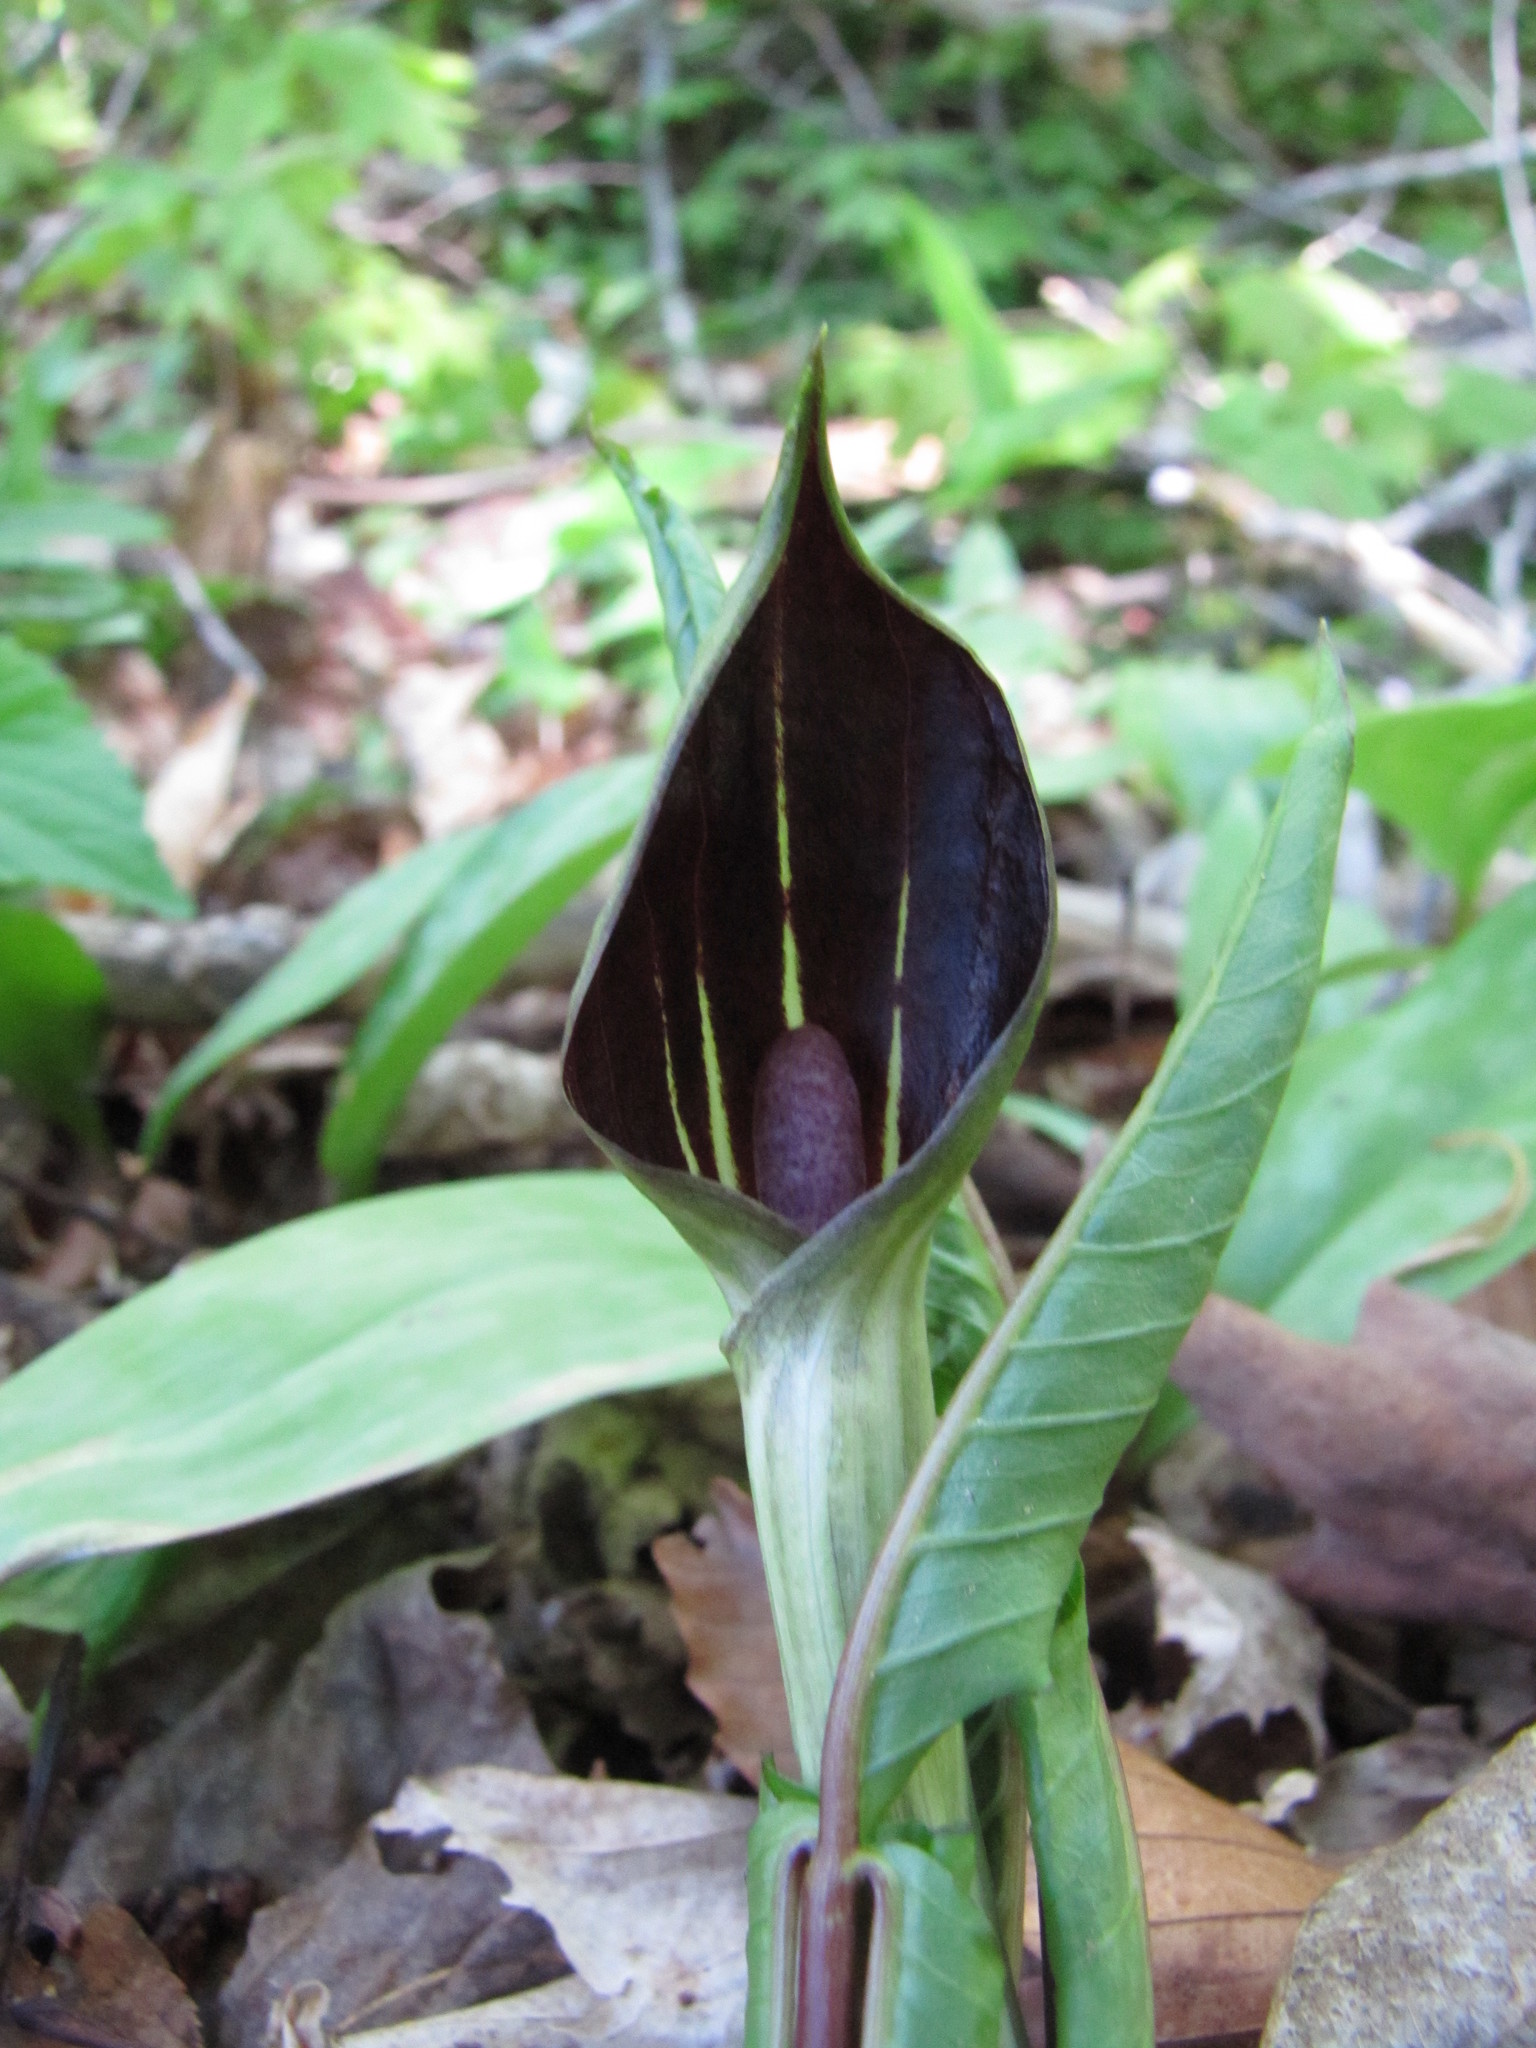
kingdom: Plantae
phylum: Tracheophyta
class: Liliopsida
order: Alismatales
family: Araceae
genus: Arisaema
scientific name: Arisaema triphyllum
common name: Jack-in-the-pulpit
